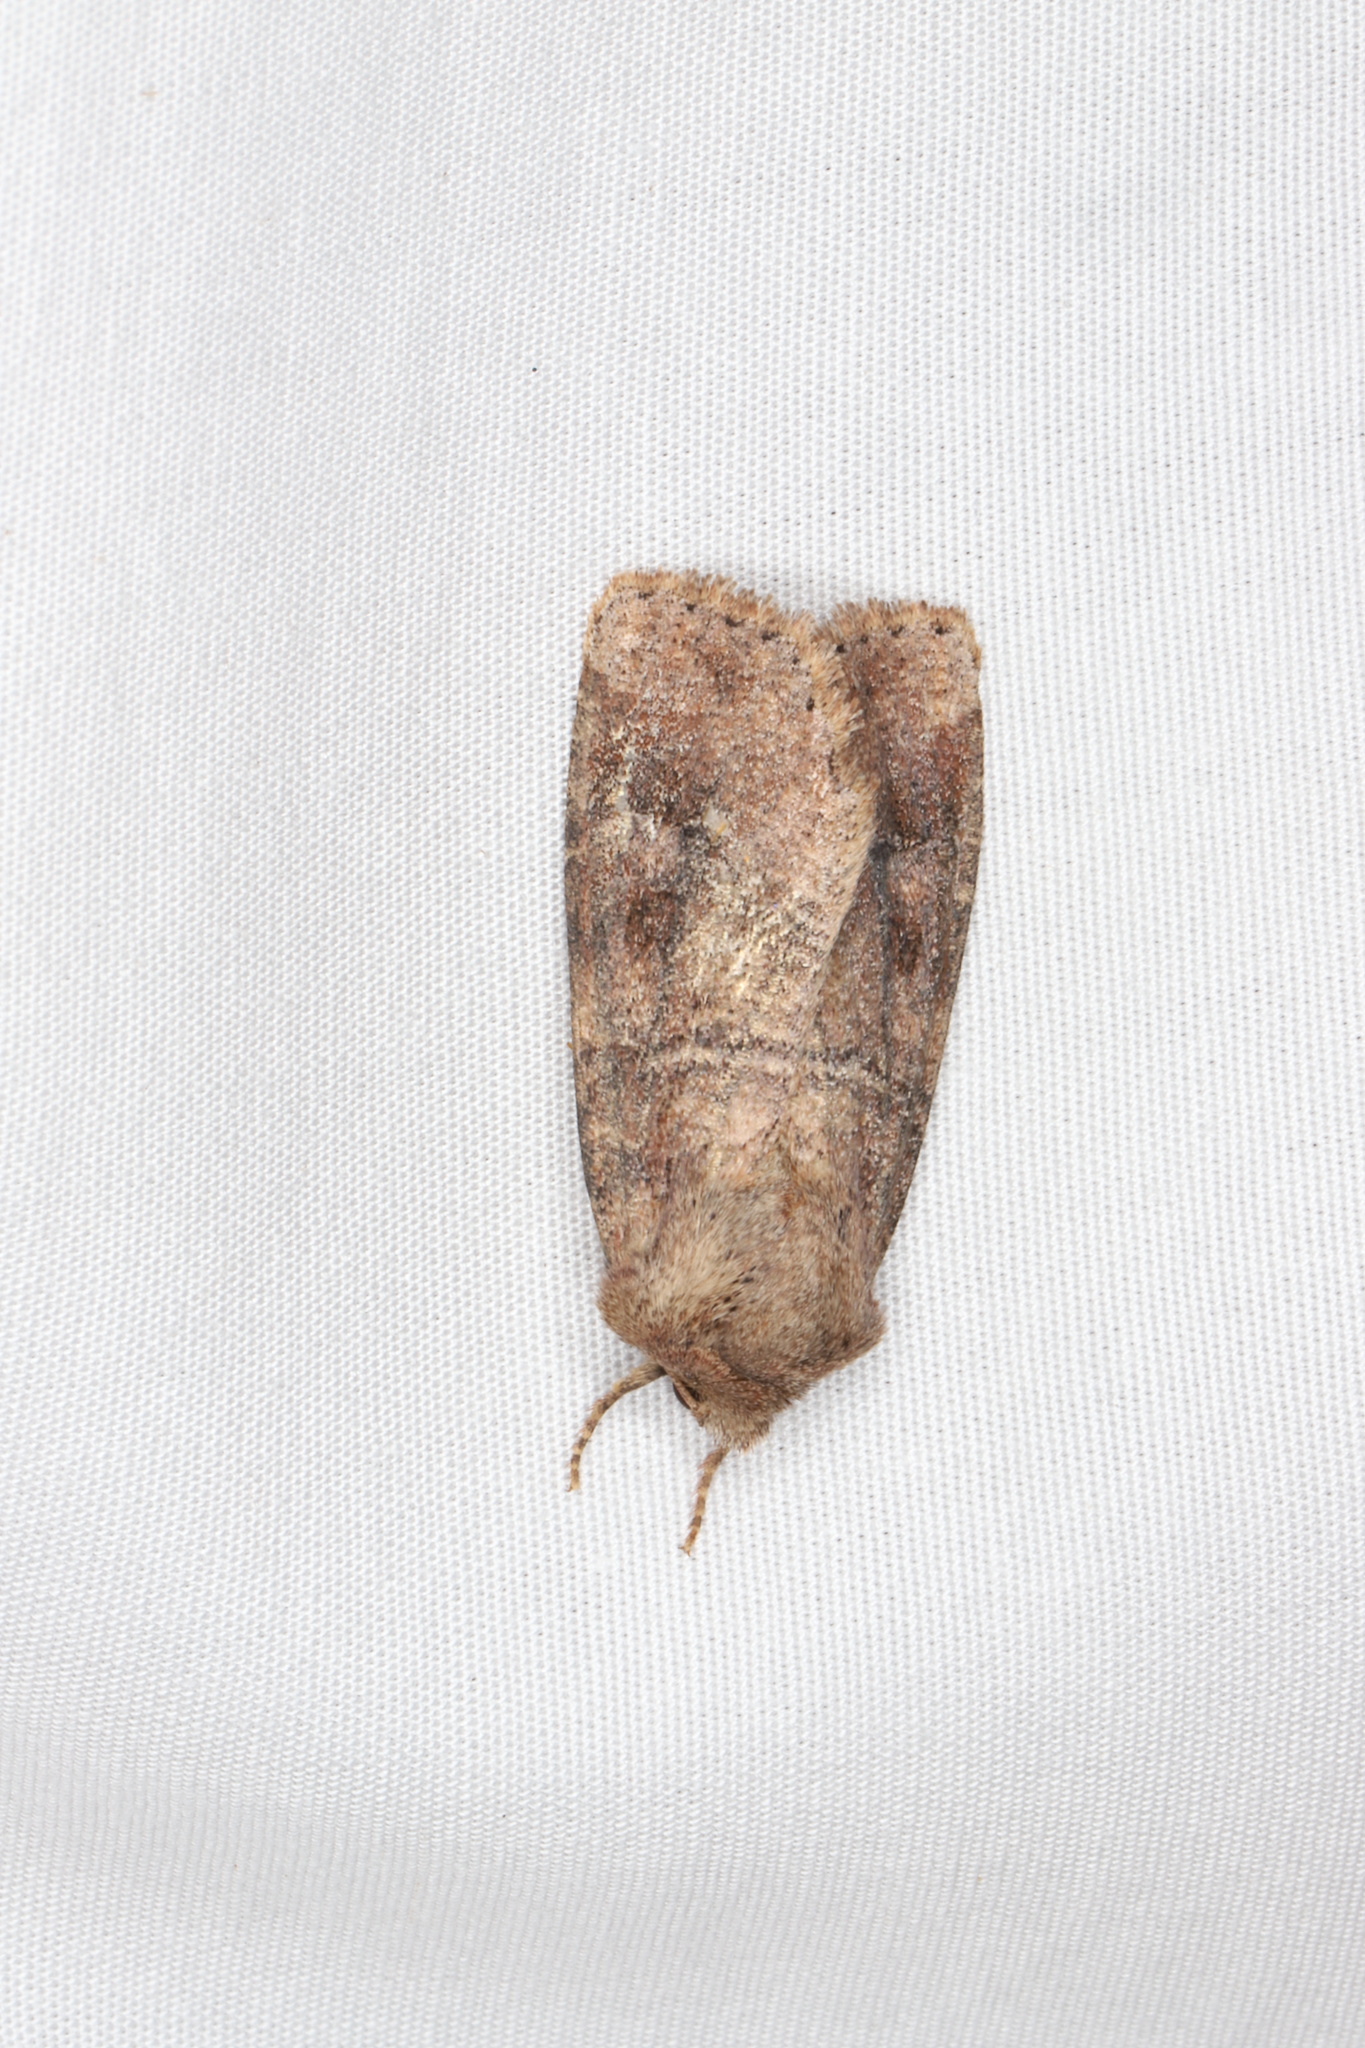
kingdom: Animalia
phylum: Arthropoda
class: Insecta
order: Lepidoptera
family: Noctuidae
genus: Crocigrapha
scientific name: Crocigrapha normani
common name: Norman's quaker
